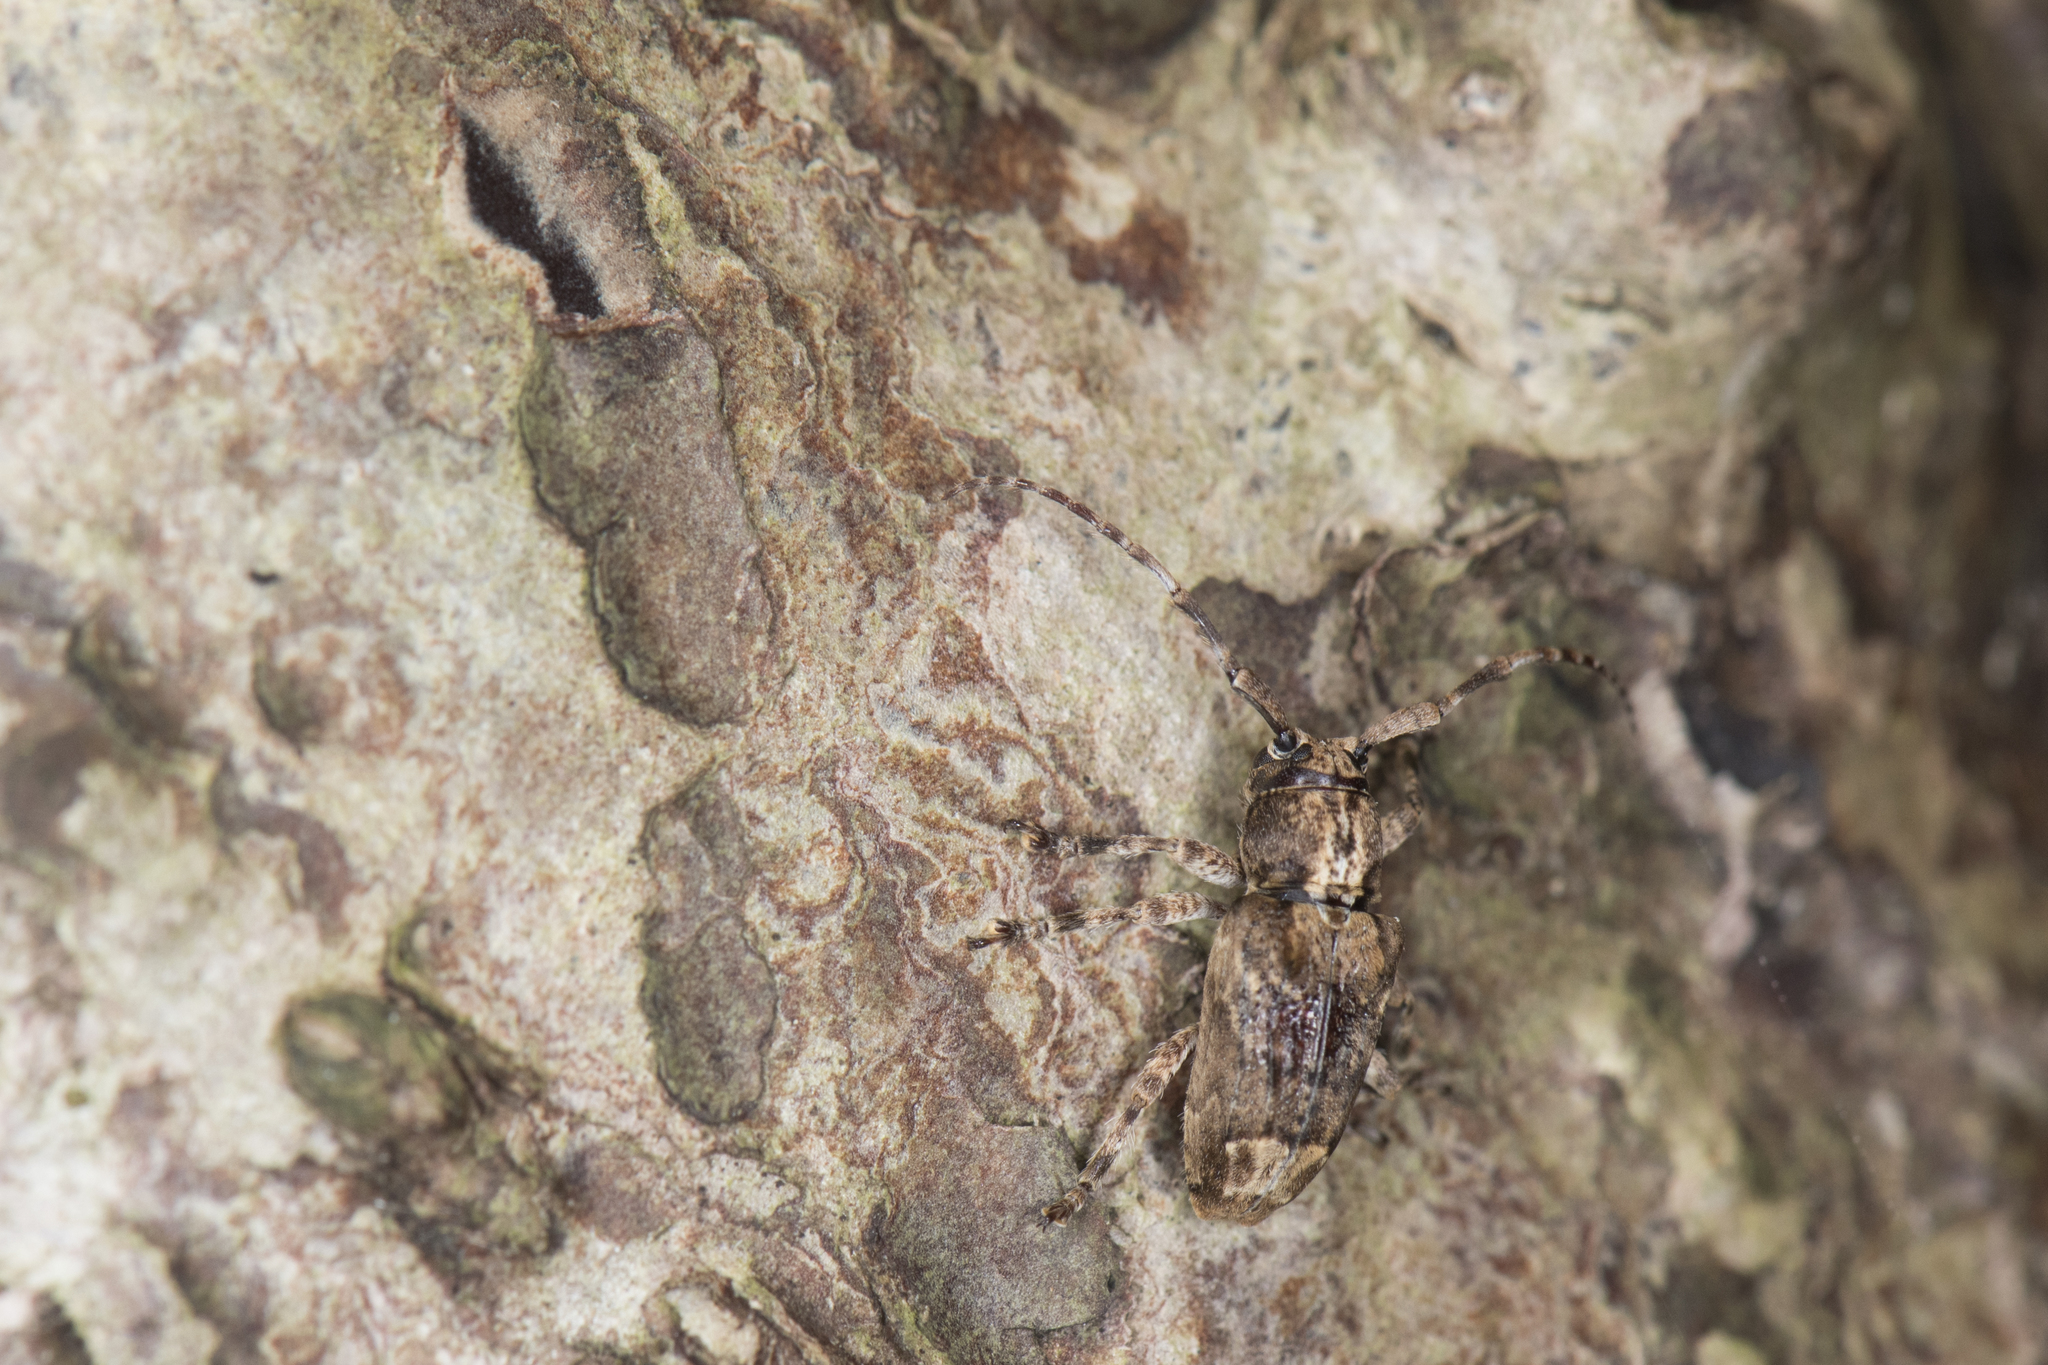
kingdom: Animalia
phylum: Arthropoda
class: Insecta
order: Coleoptera
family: Cerambycidae
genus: Pterolophia
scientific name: Pterolophia bigibbera
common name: Long-horned beetle
